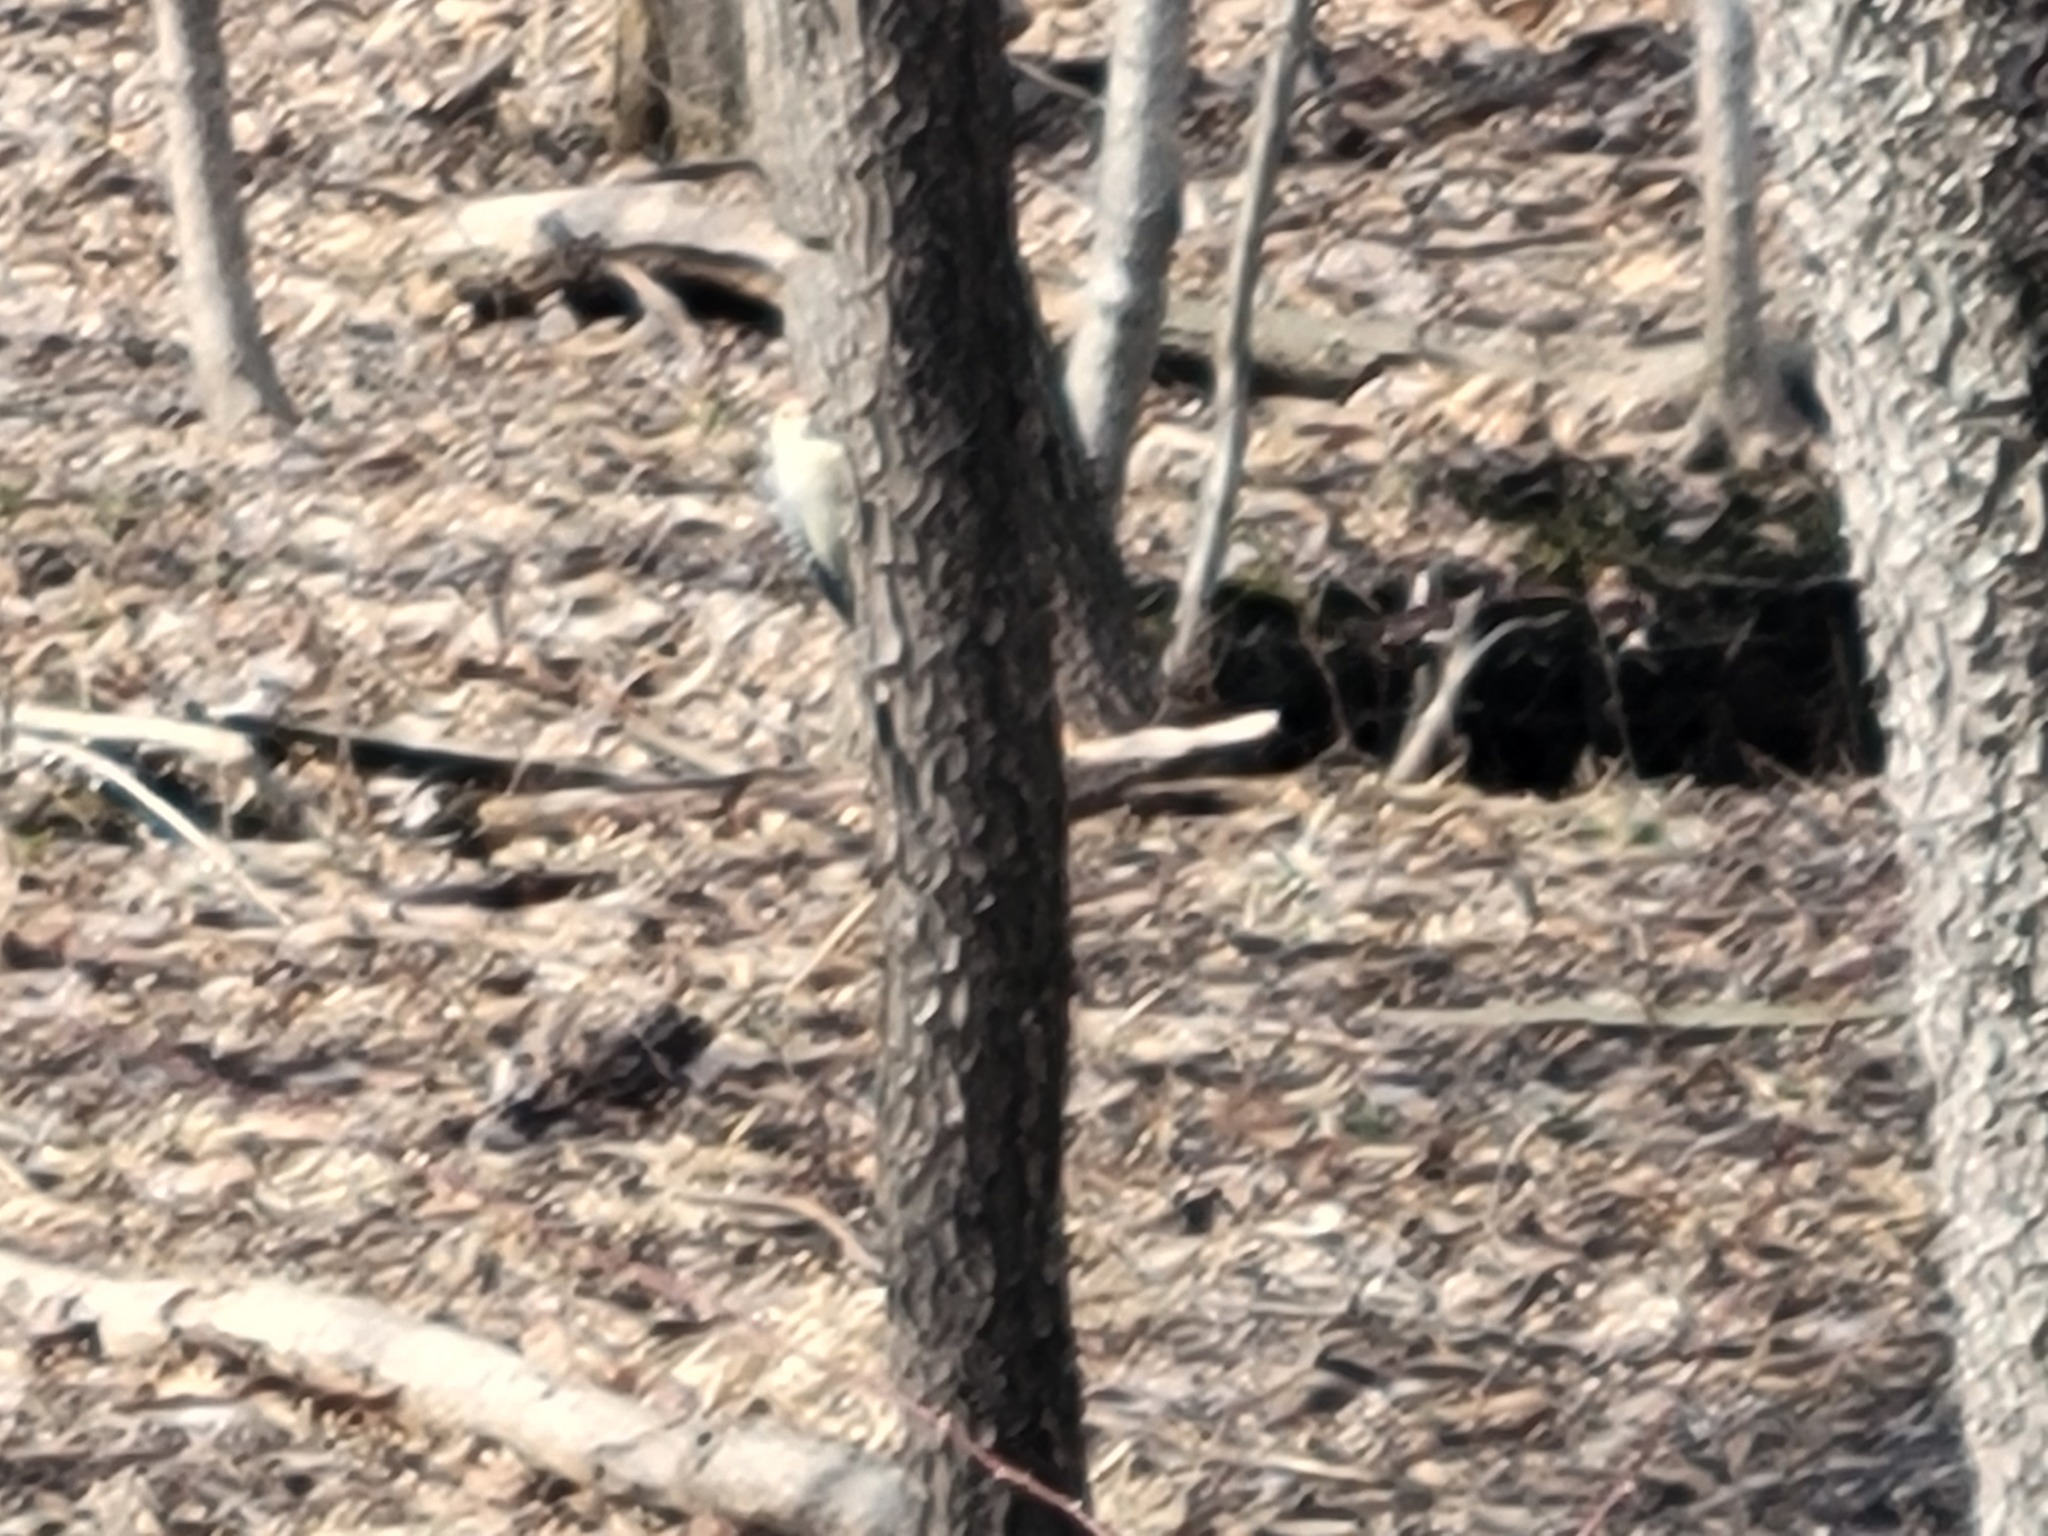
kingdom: Animalia
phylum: Chordata
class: Aves
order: Piciformes
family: Picidae
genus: Melanerpes
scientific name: Melanerpes carolinus
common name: Red-bellied woodpecker
